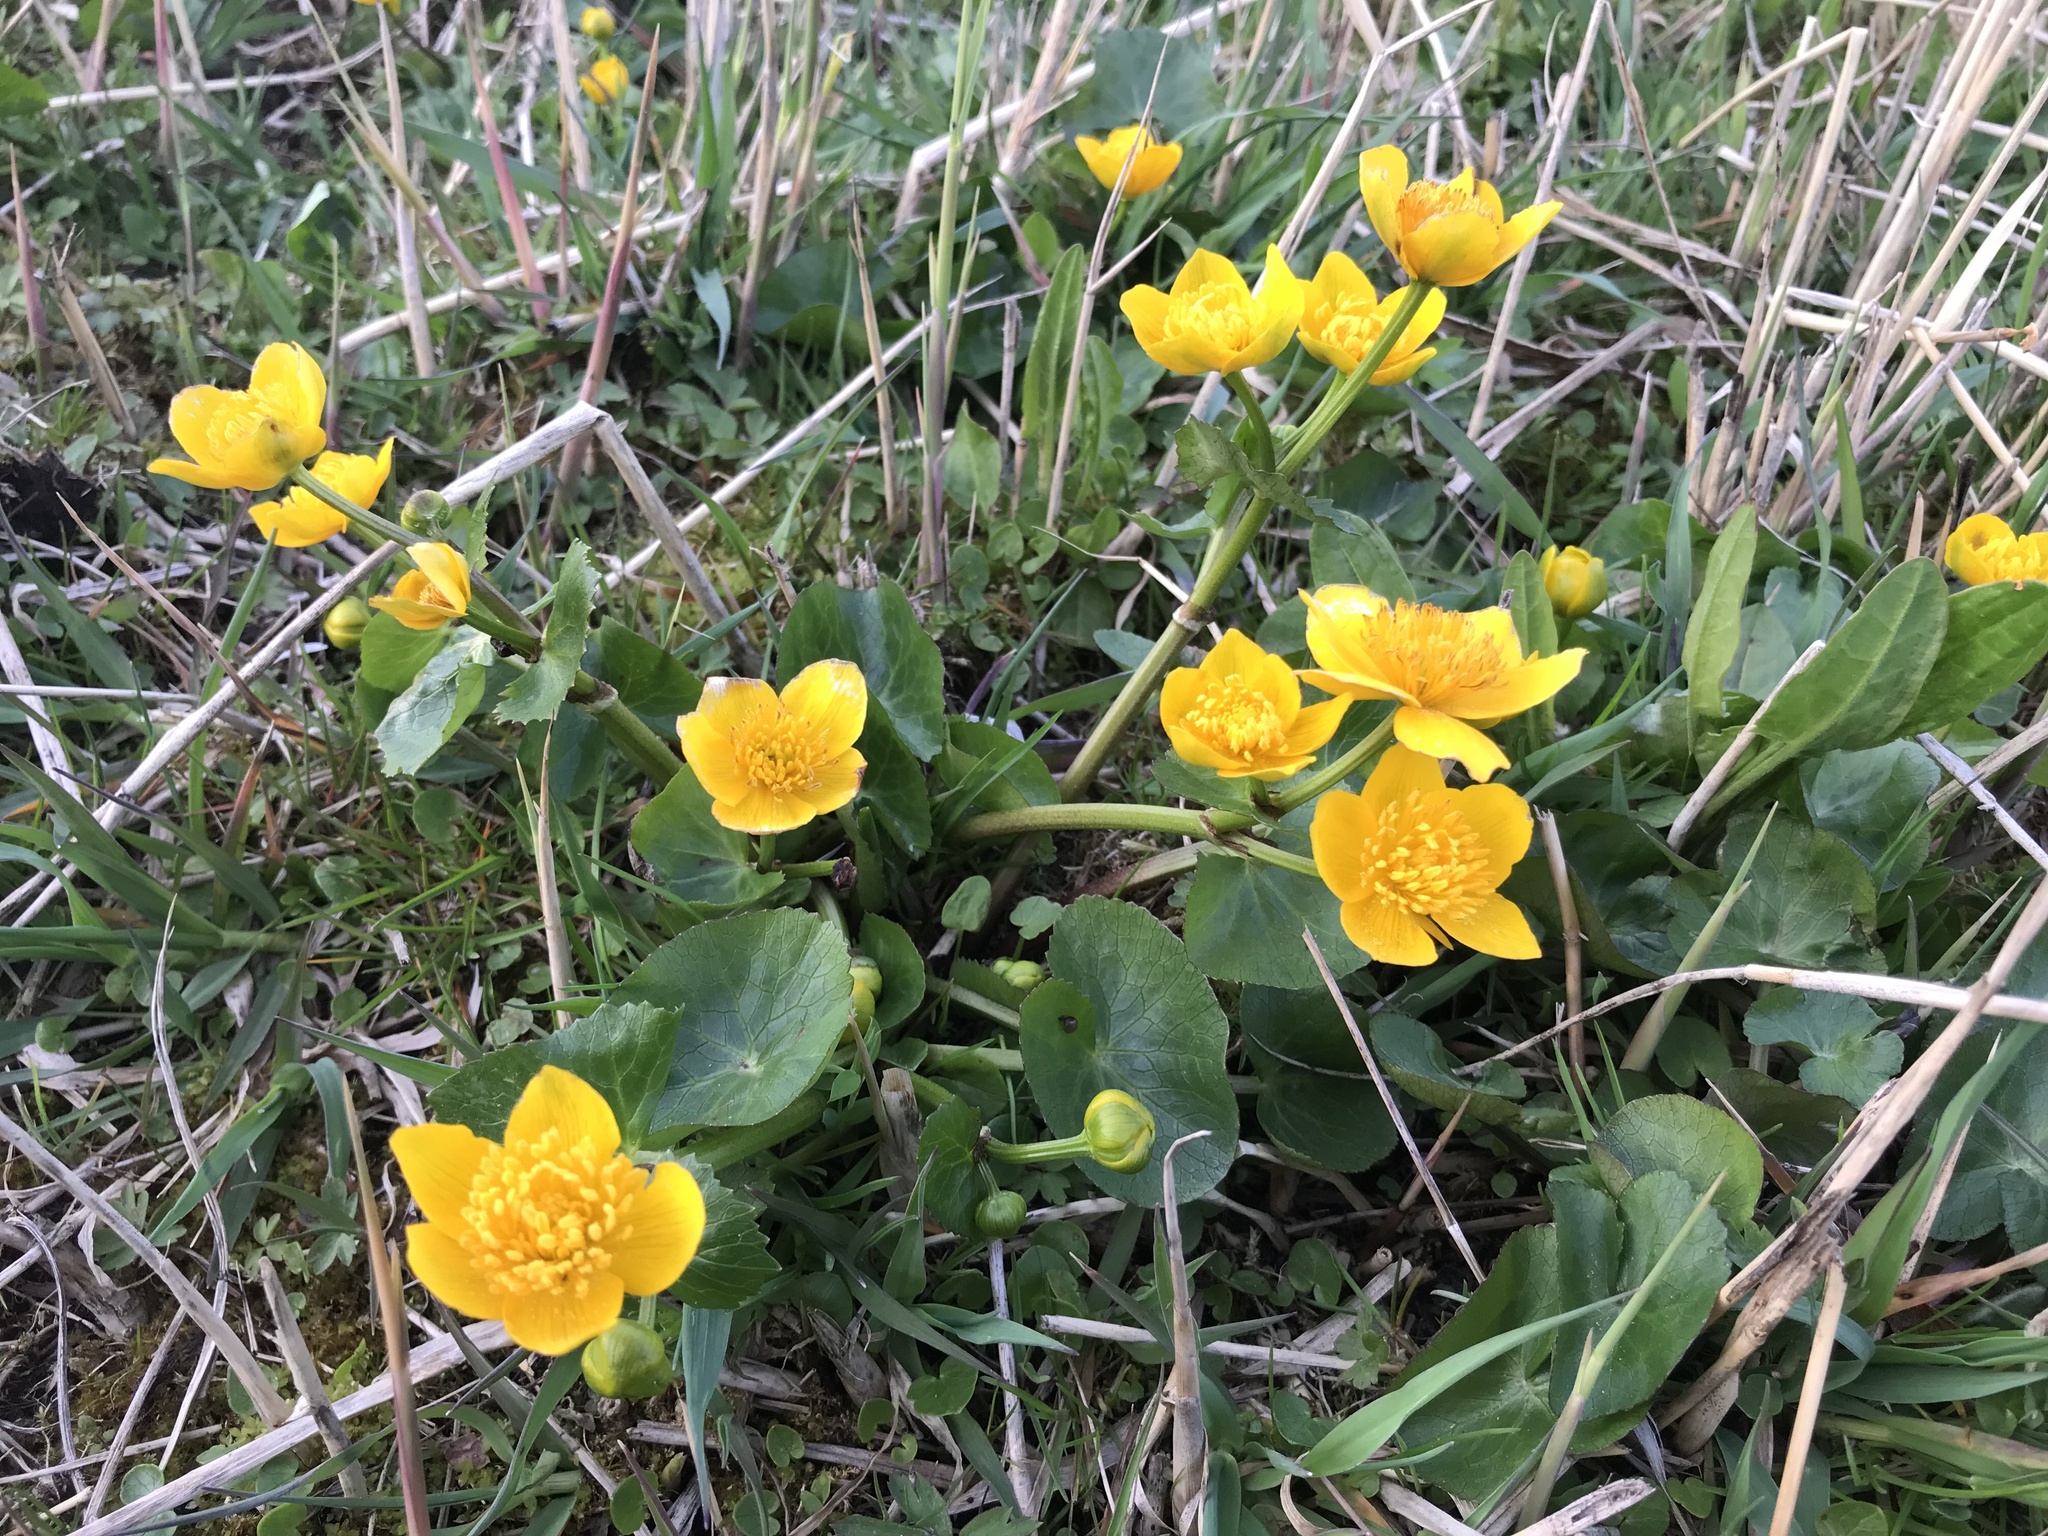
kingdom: Plantae
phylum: Tracheophyta
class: Magnoliopsida
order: Ranunculales
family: Ranunculaceae
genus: Caltha
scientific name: Caltha palustris
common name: Marsh marigold
